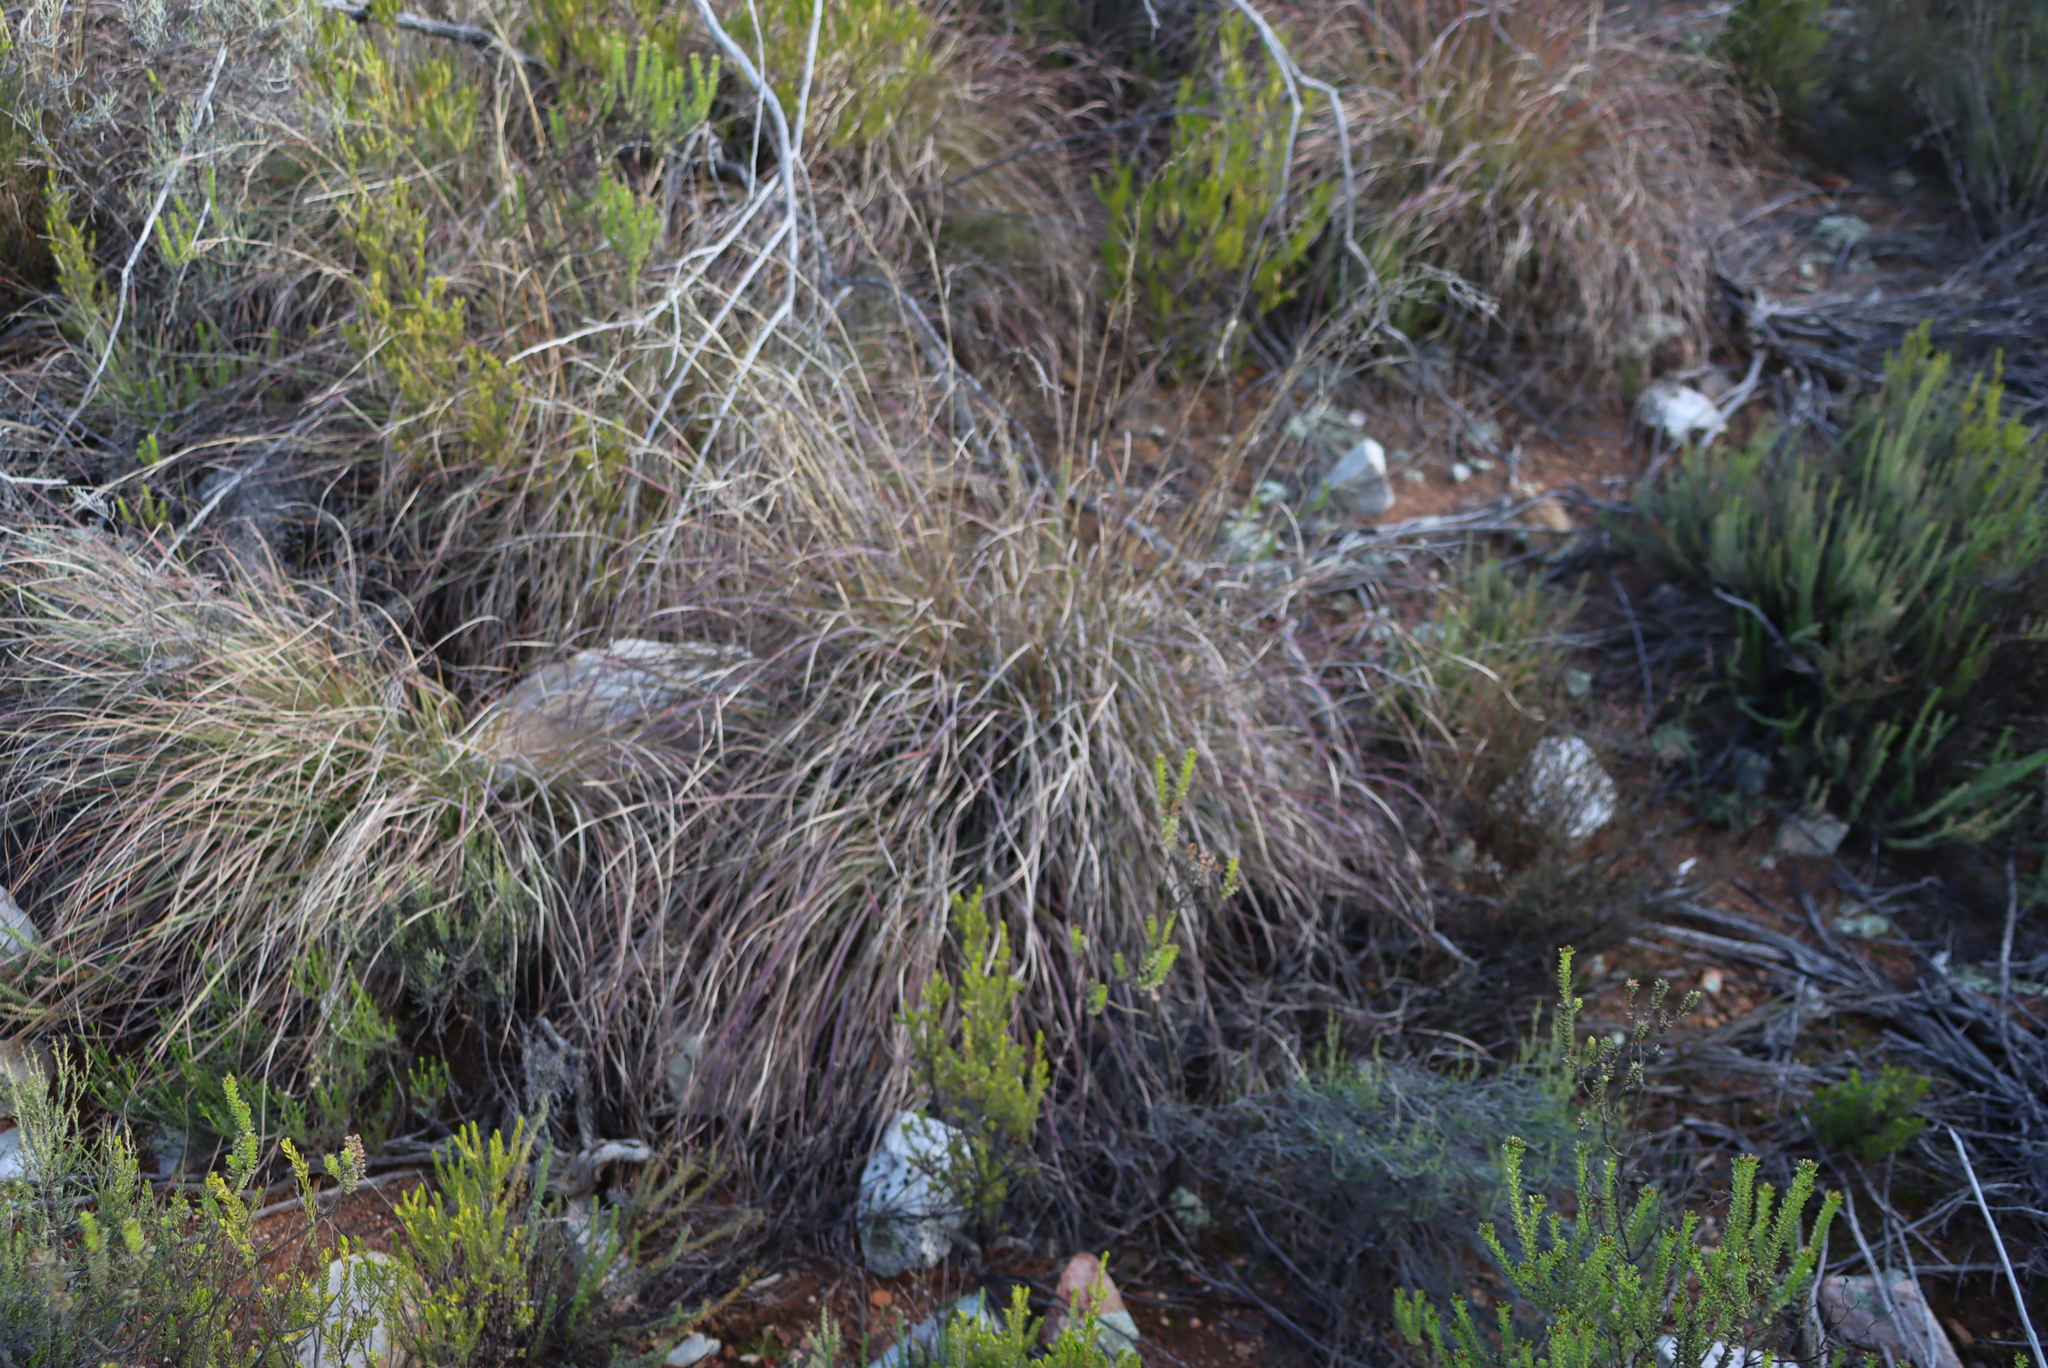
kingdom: Plantae
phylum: Tracheophyta
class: Liliopsida
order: Poales
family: Poaceae
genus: Cymbopogon
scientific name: Cymbopogon pospischilii
